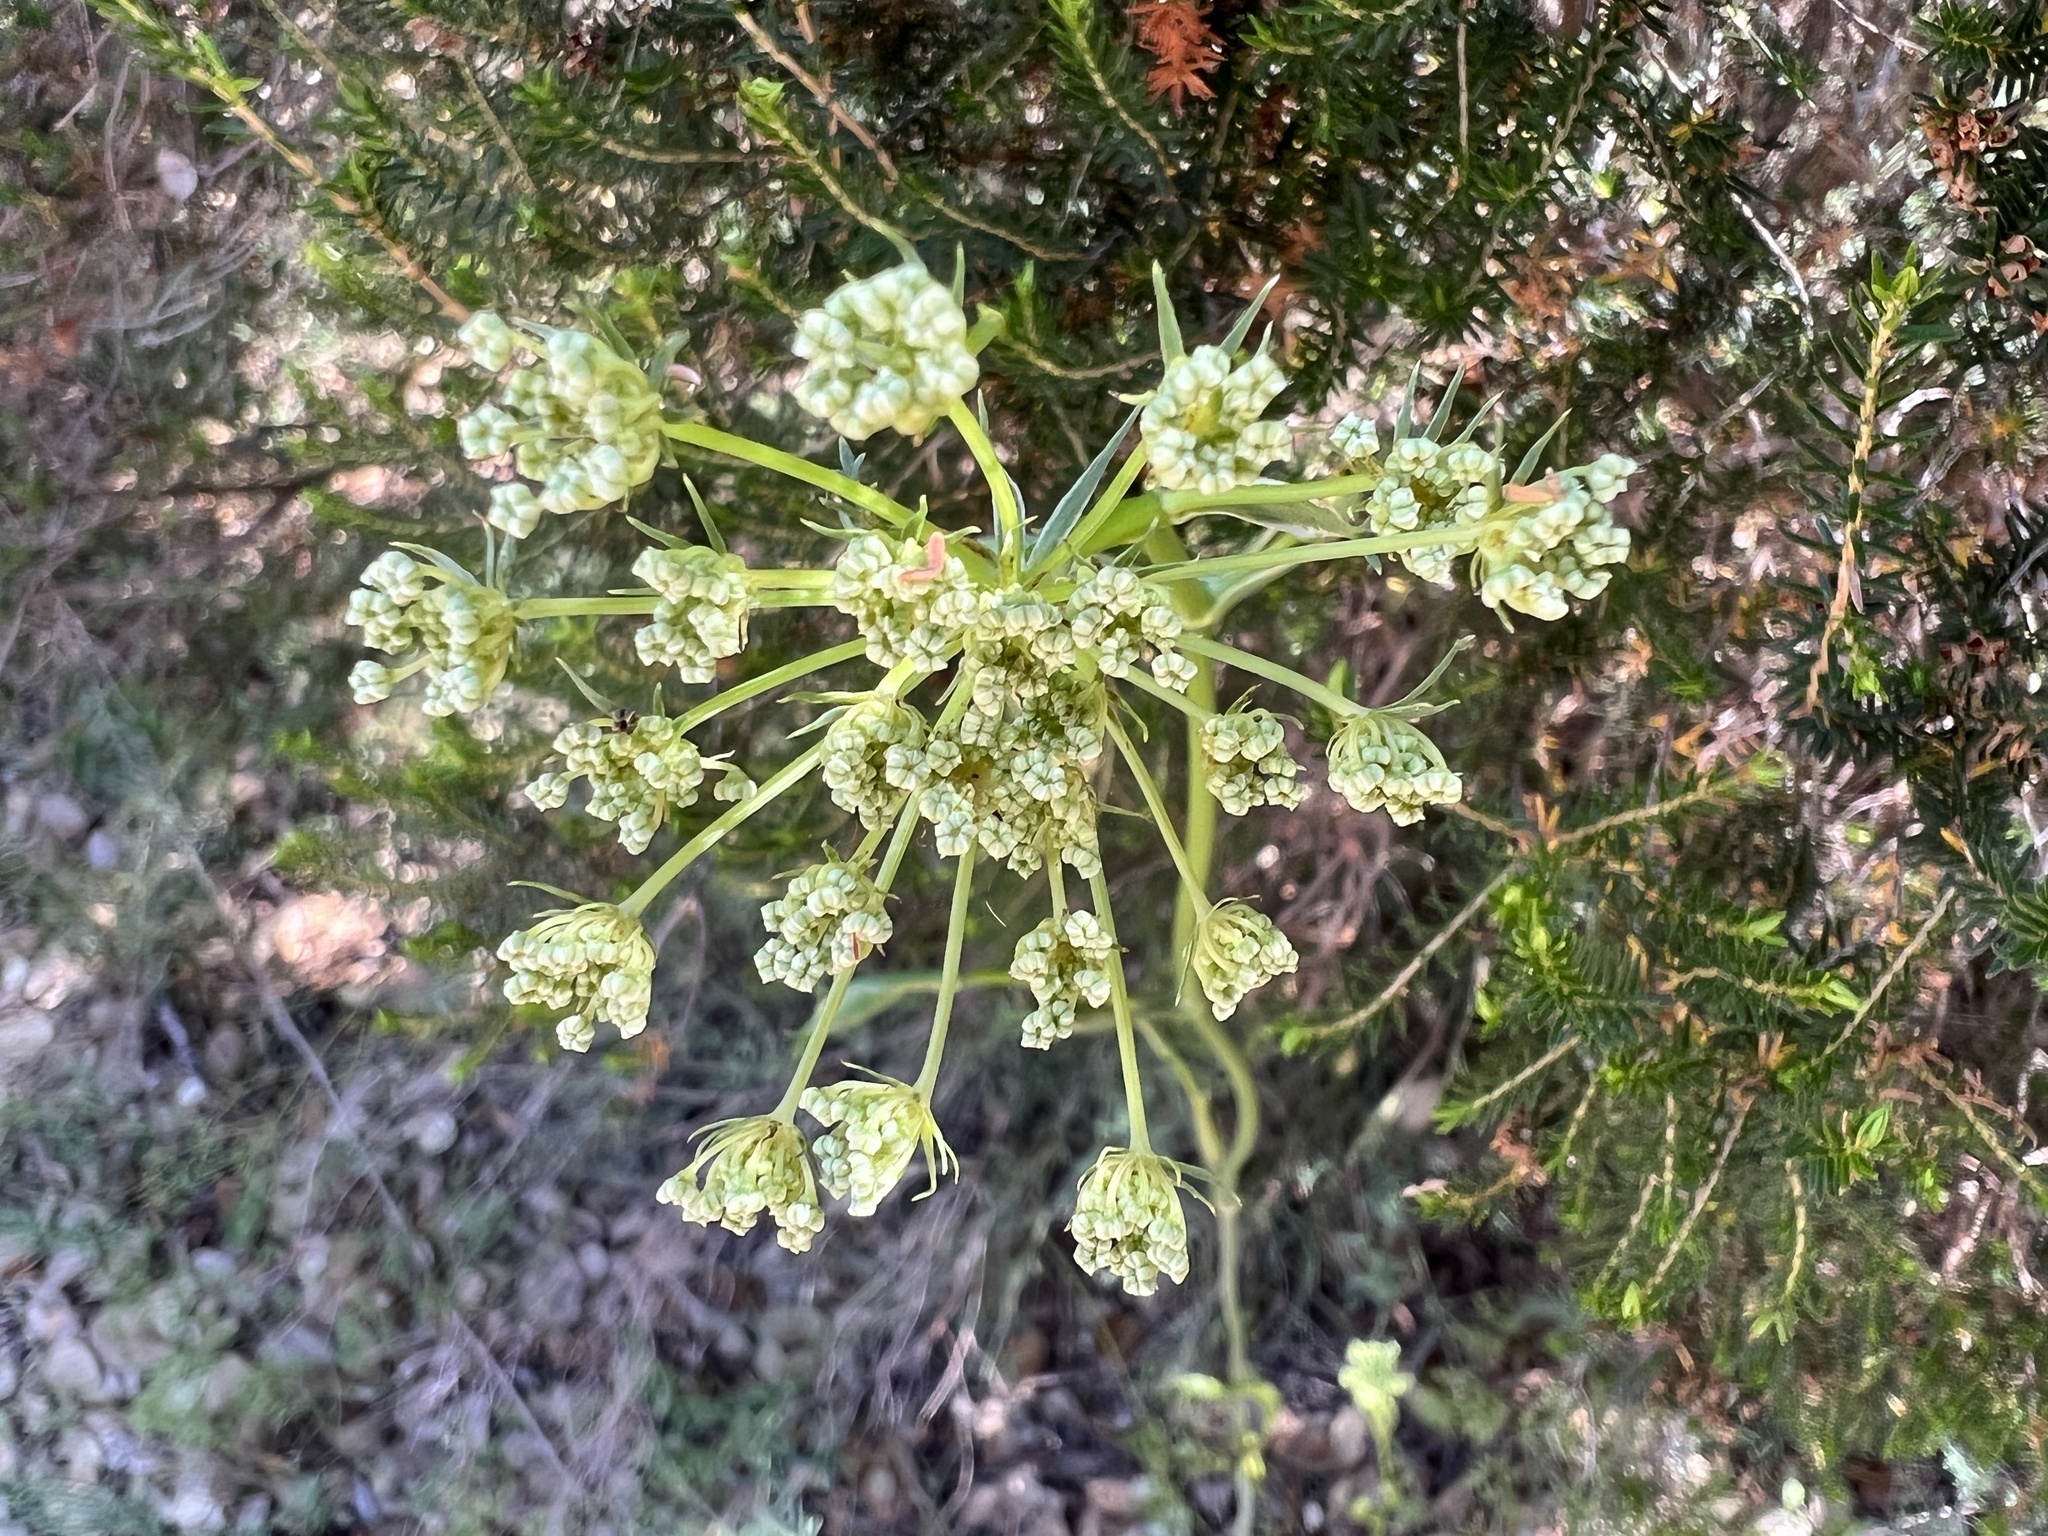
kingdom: Plantae
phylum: Tracheophyta
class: Magnoliopsida
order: Apiales
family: Apiaceae
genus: Oreoselinum
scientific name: Oreoselinum nigrum
